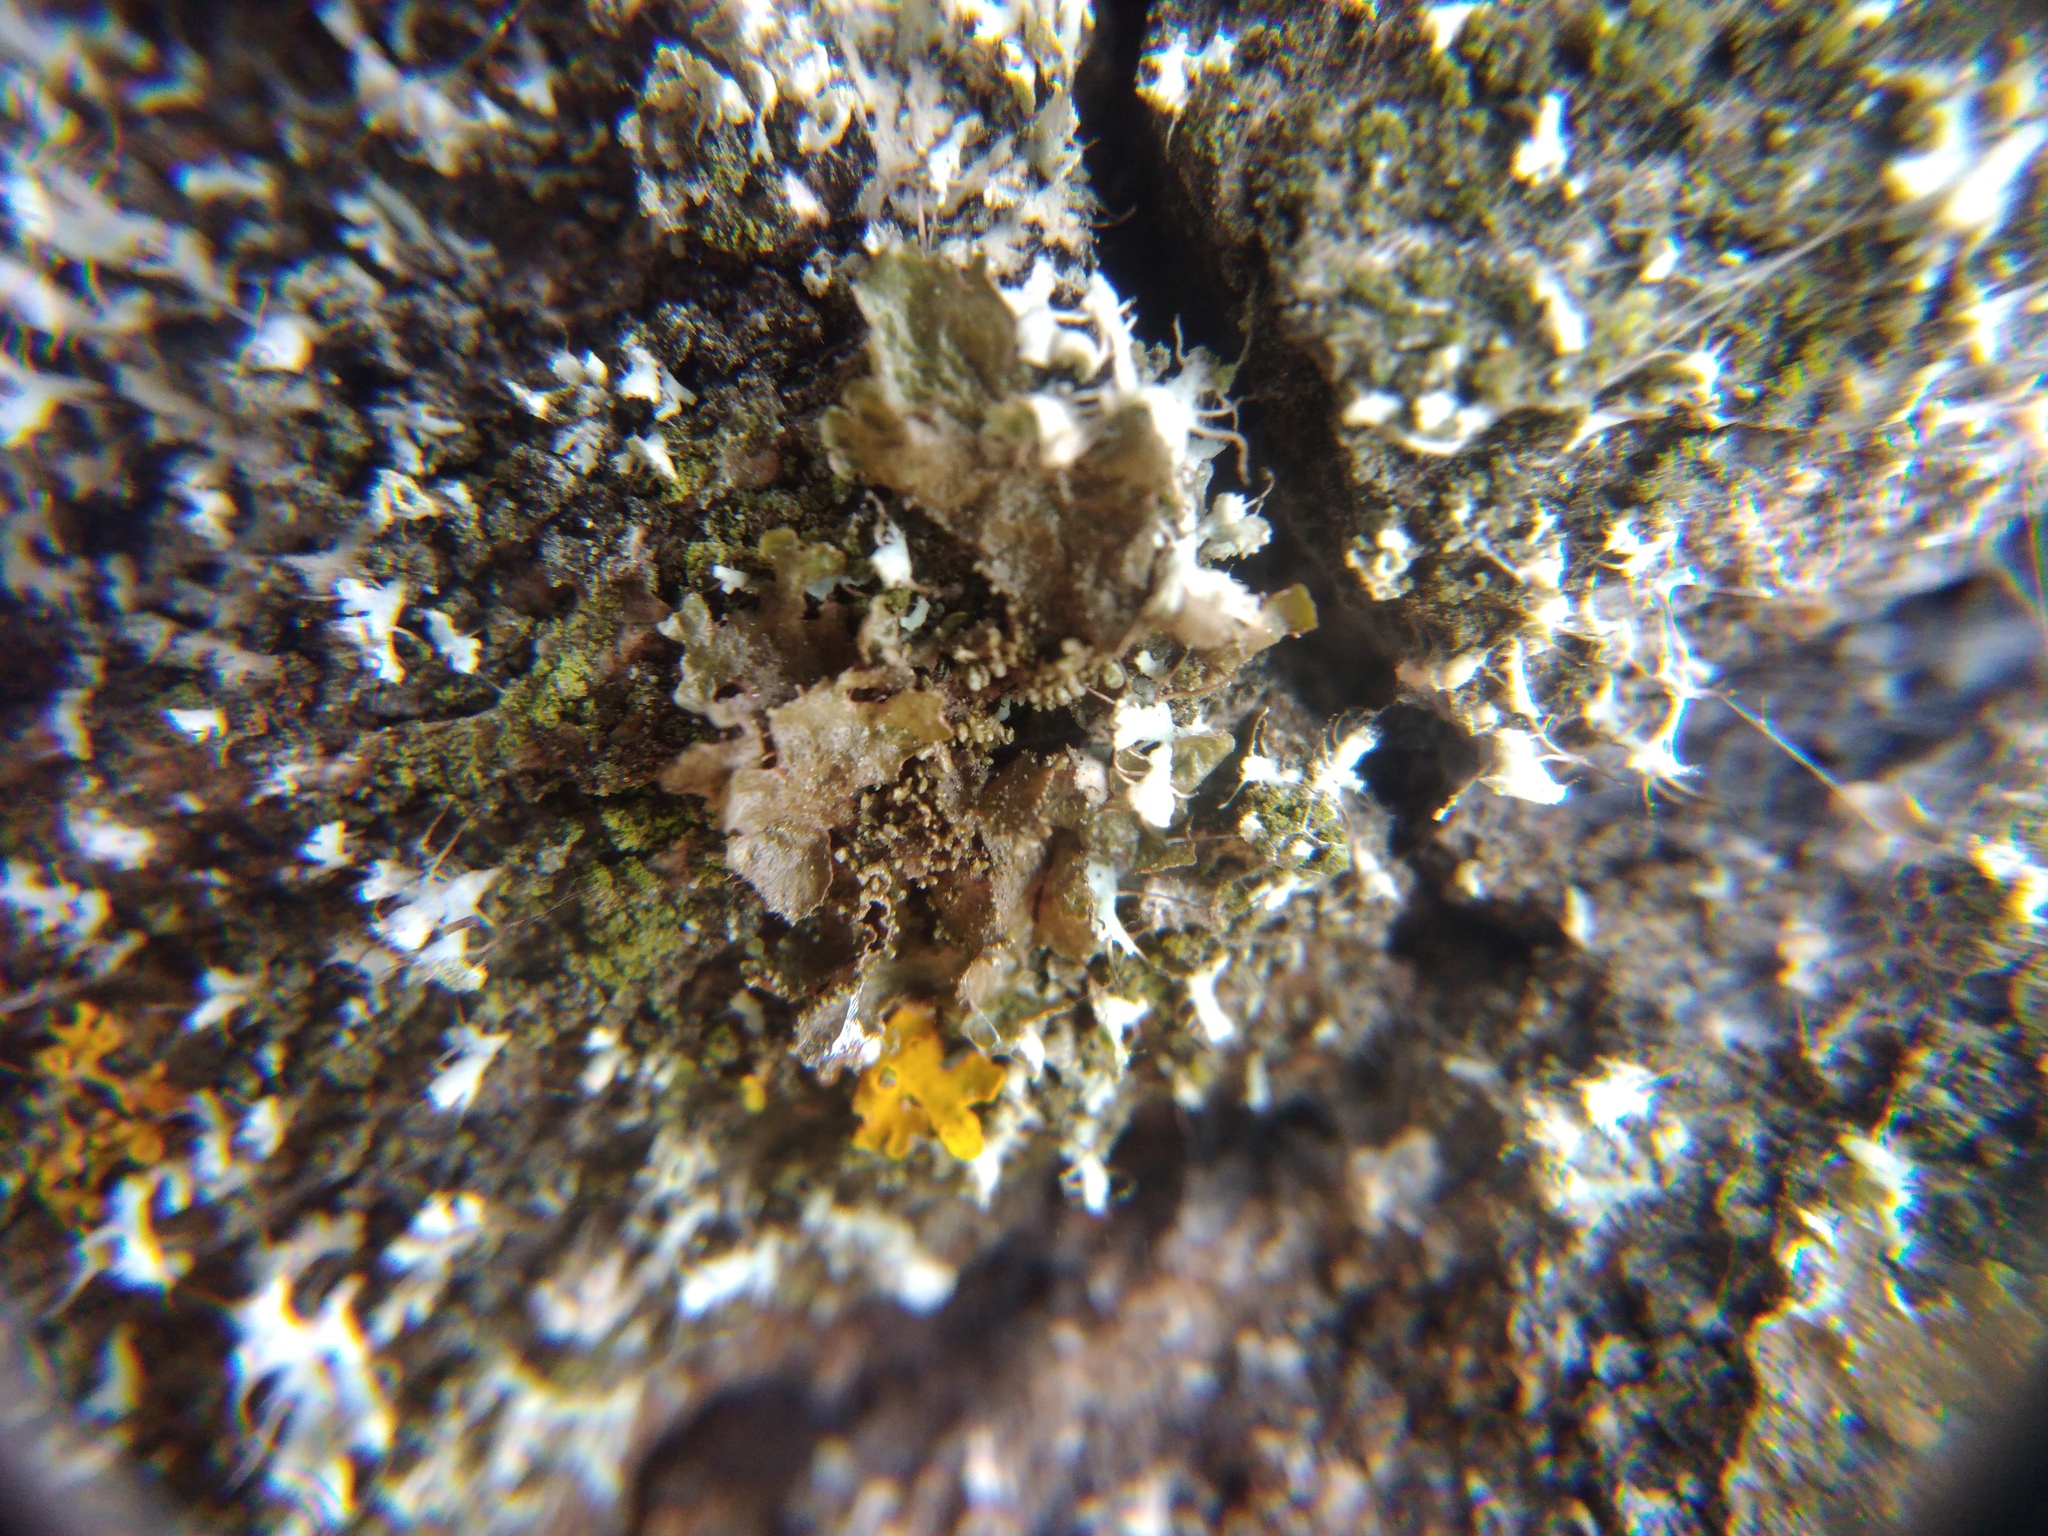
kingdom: Fungi
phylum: Ascomycota
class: Lecanoromycetes
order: Lecanorales
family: Parmeliaceae
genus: Melanohalea
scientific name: Melanohalea exasperatula
